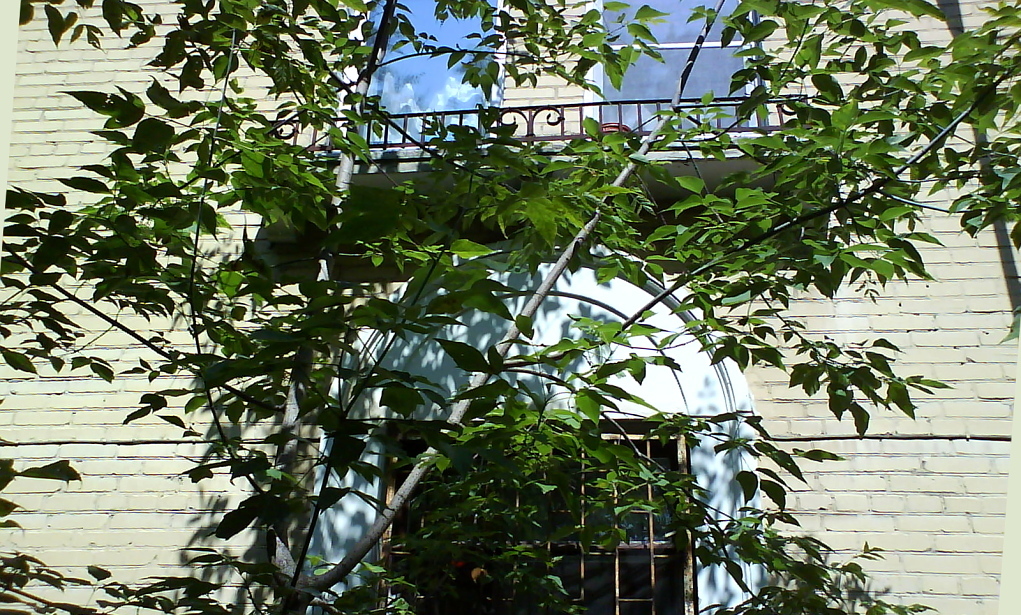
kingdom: Plantae
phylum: Tracheophyta
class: Magnoliopsida
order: Sapindales
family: Sapindaceae
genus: Acer
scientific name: Acer negundo
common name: Ashleaf maple
